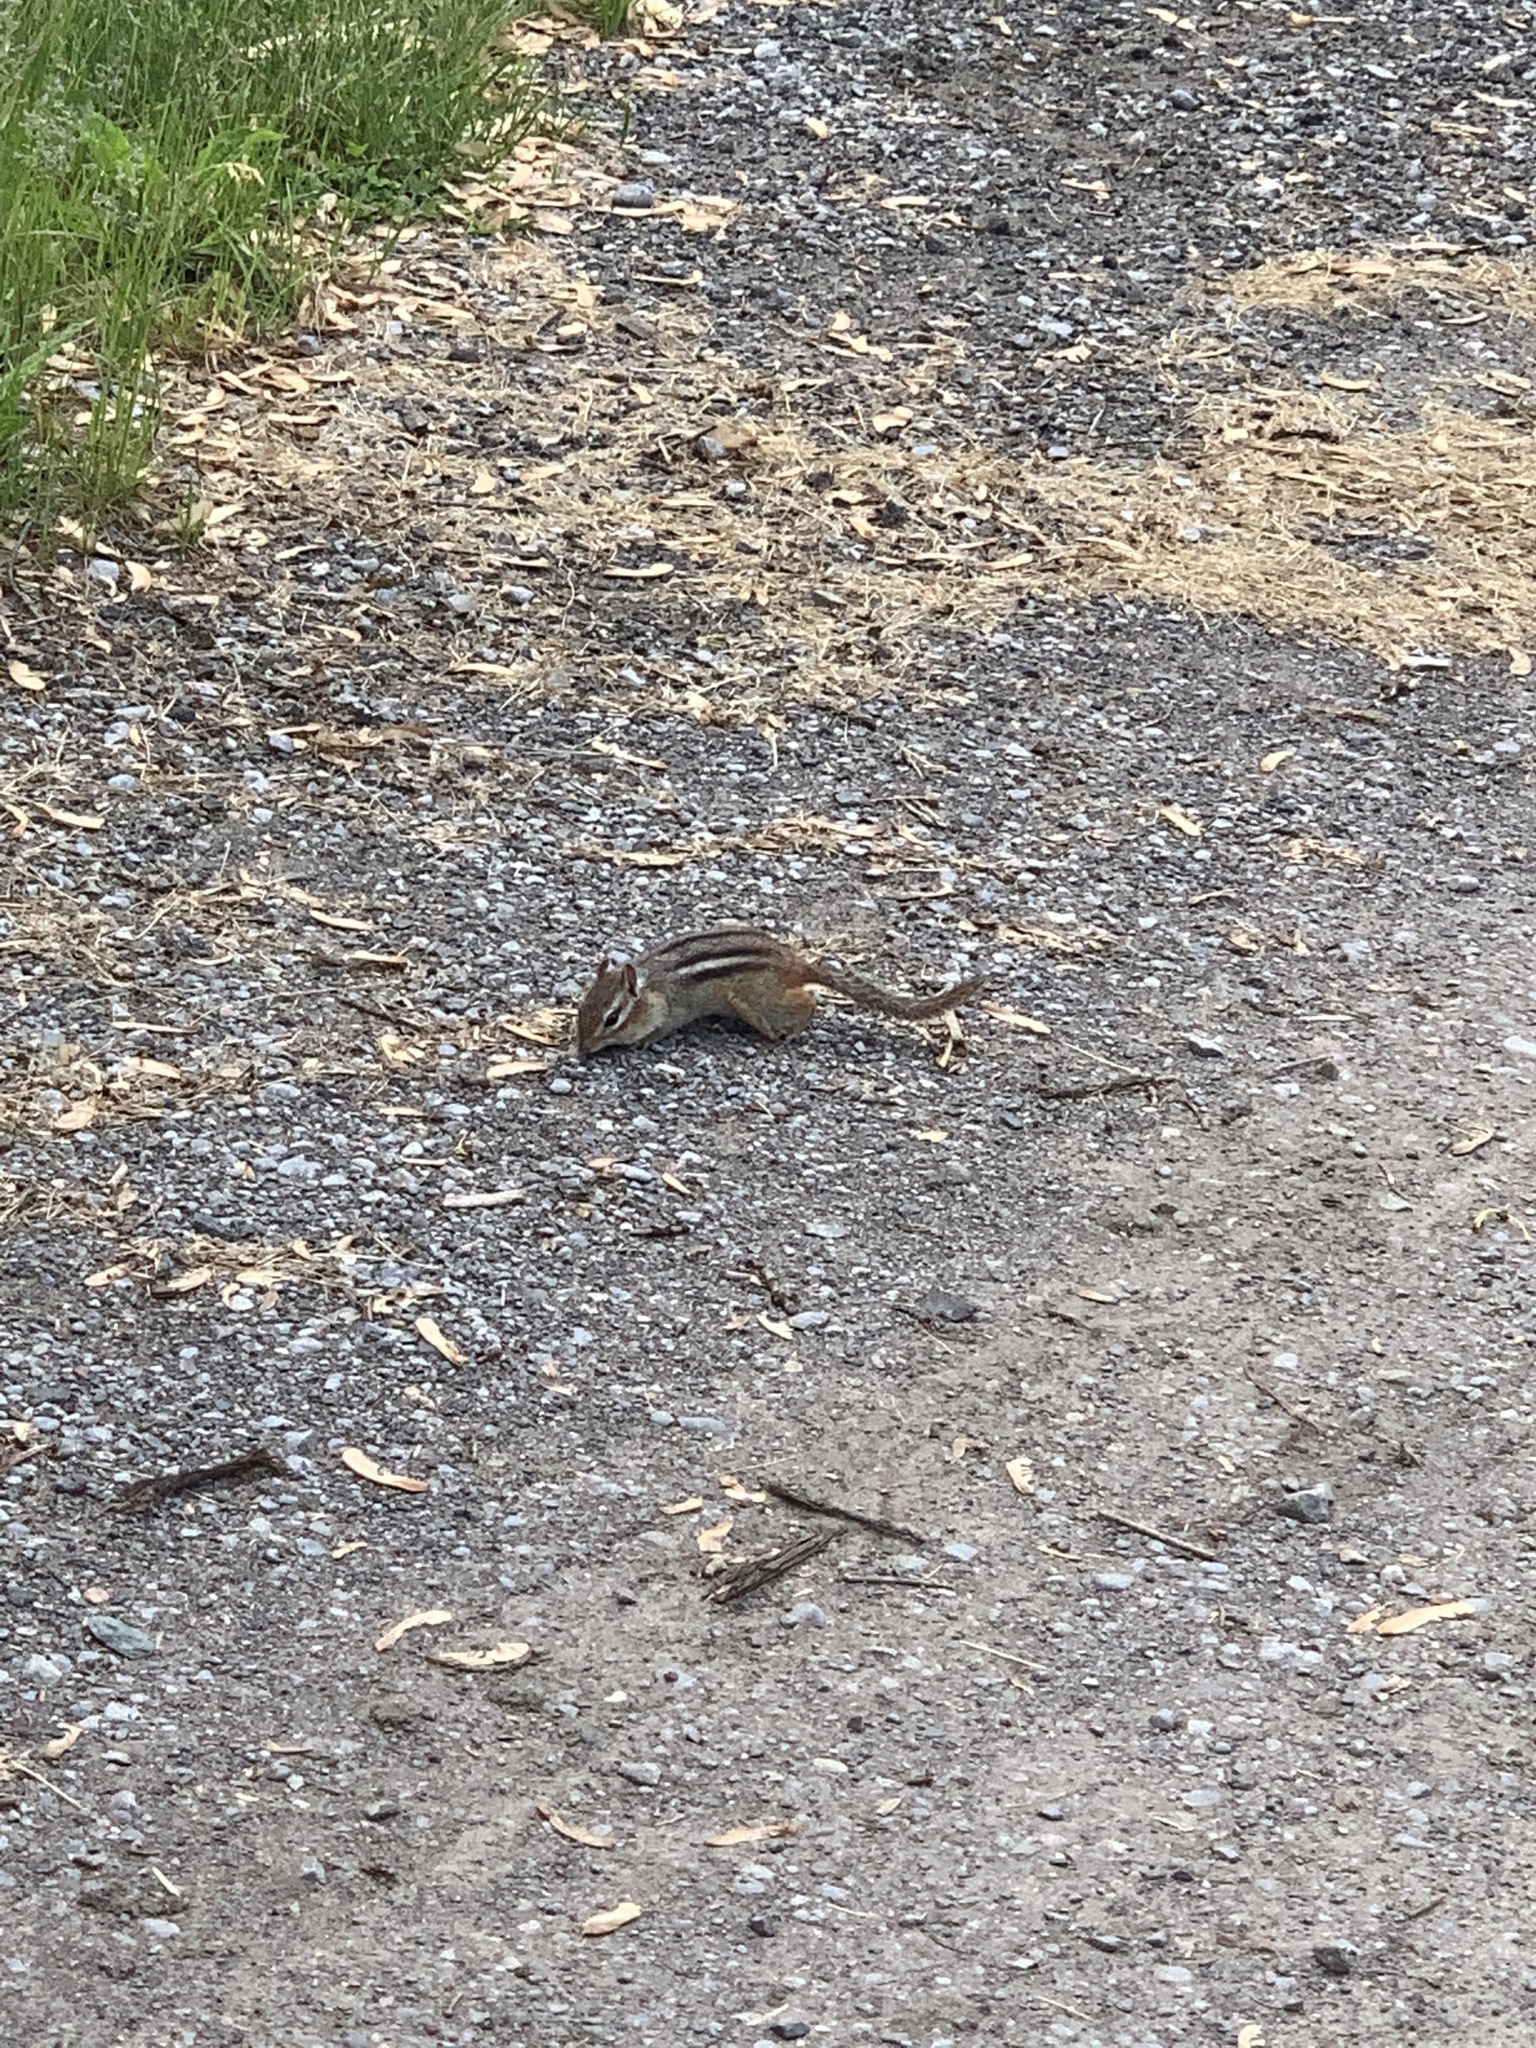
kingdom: Animalia
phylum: Chordata
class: Mammalia
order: Rodentia
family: Sciuridae
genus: Tamias
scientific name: Tamias striatus
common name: Eastern chipmunk
